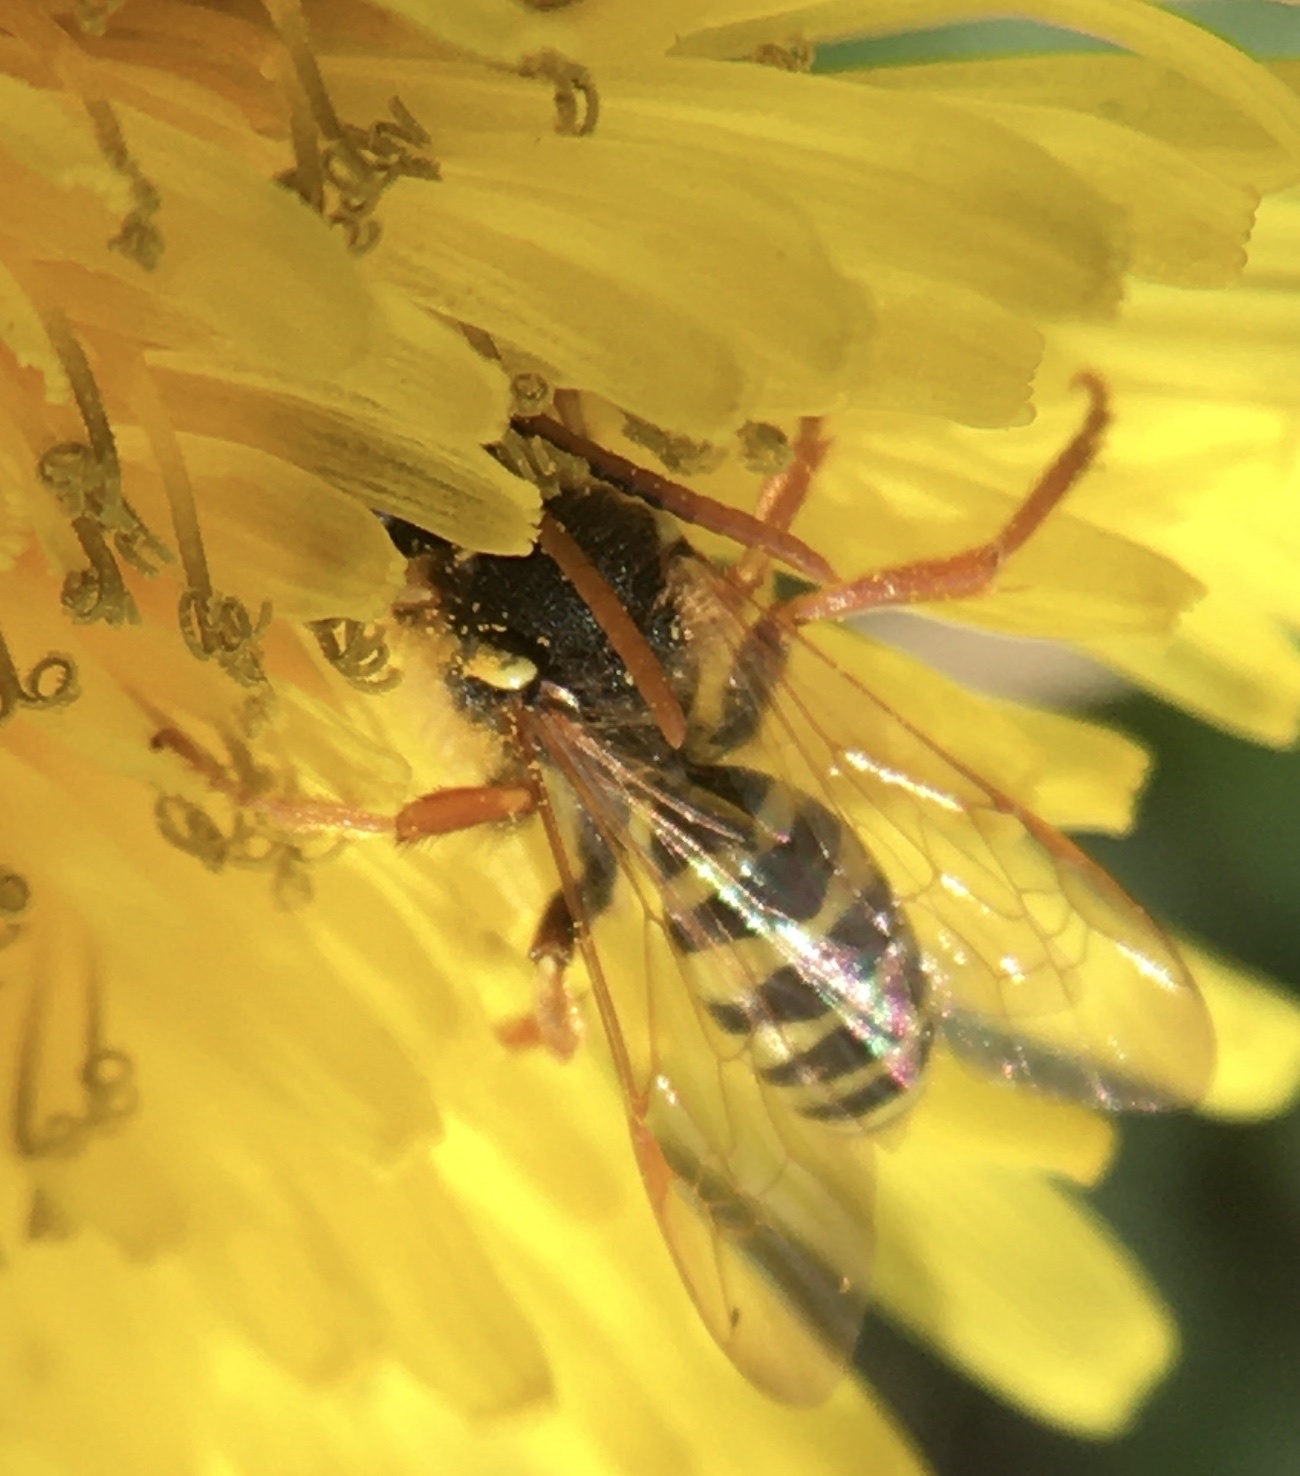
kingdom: Animalia
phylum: Arthropoda
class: Insecta
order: Hymenoptera
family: Apidae
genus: Nomada
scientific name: Nomada goodeniana
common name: Gooden's nomad bee
